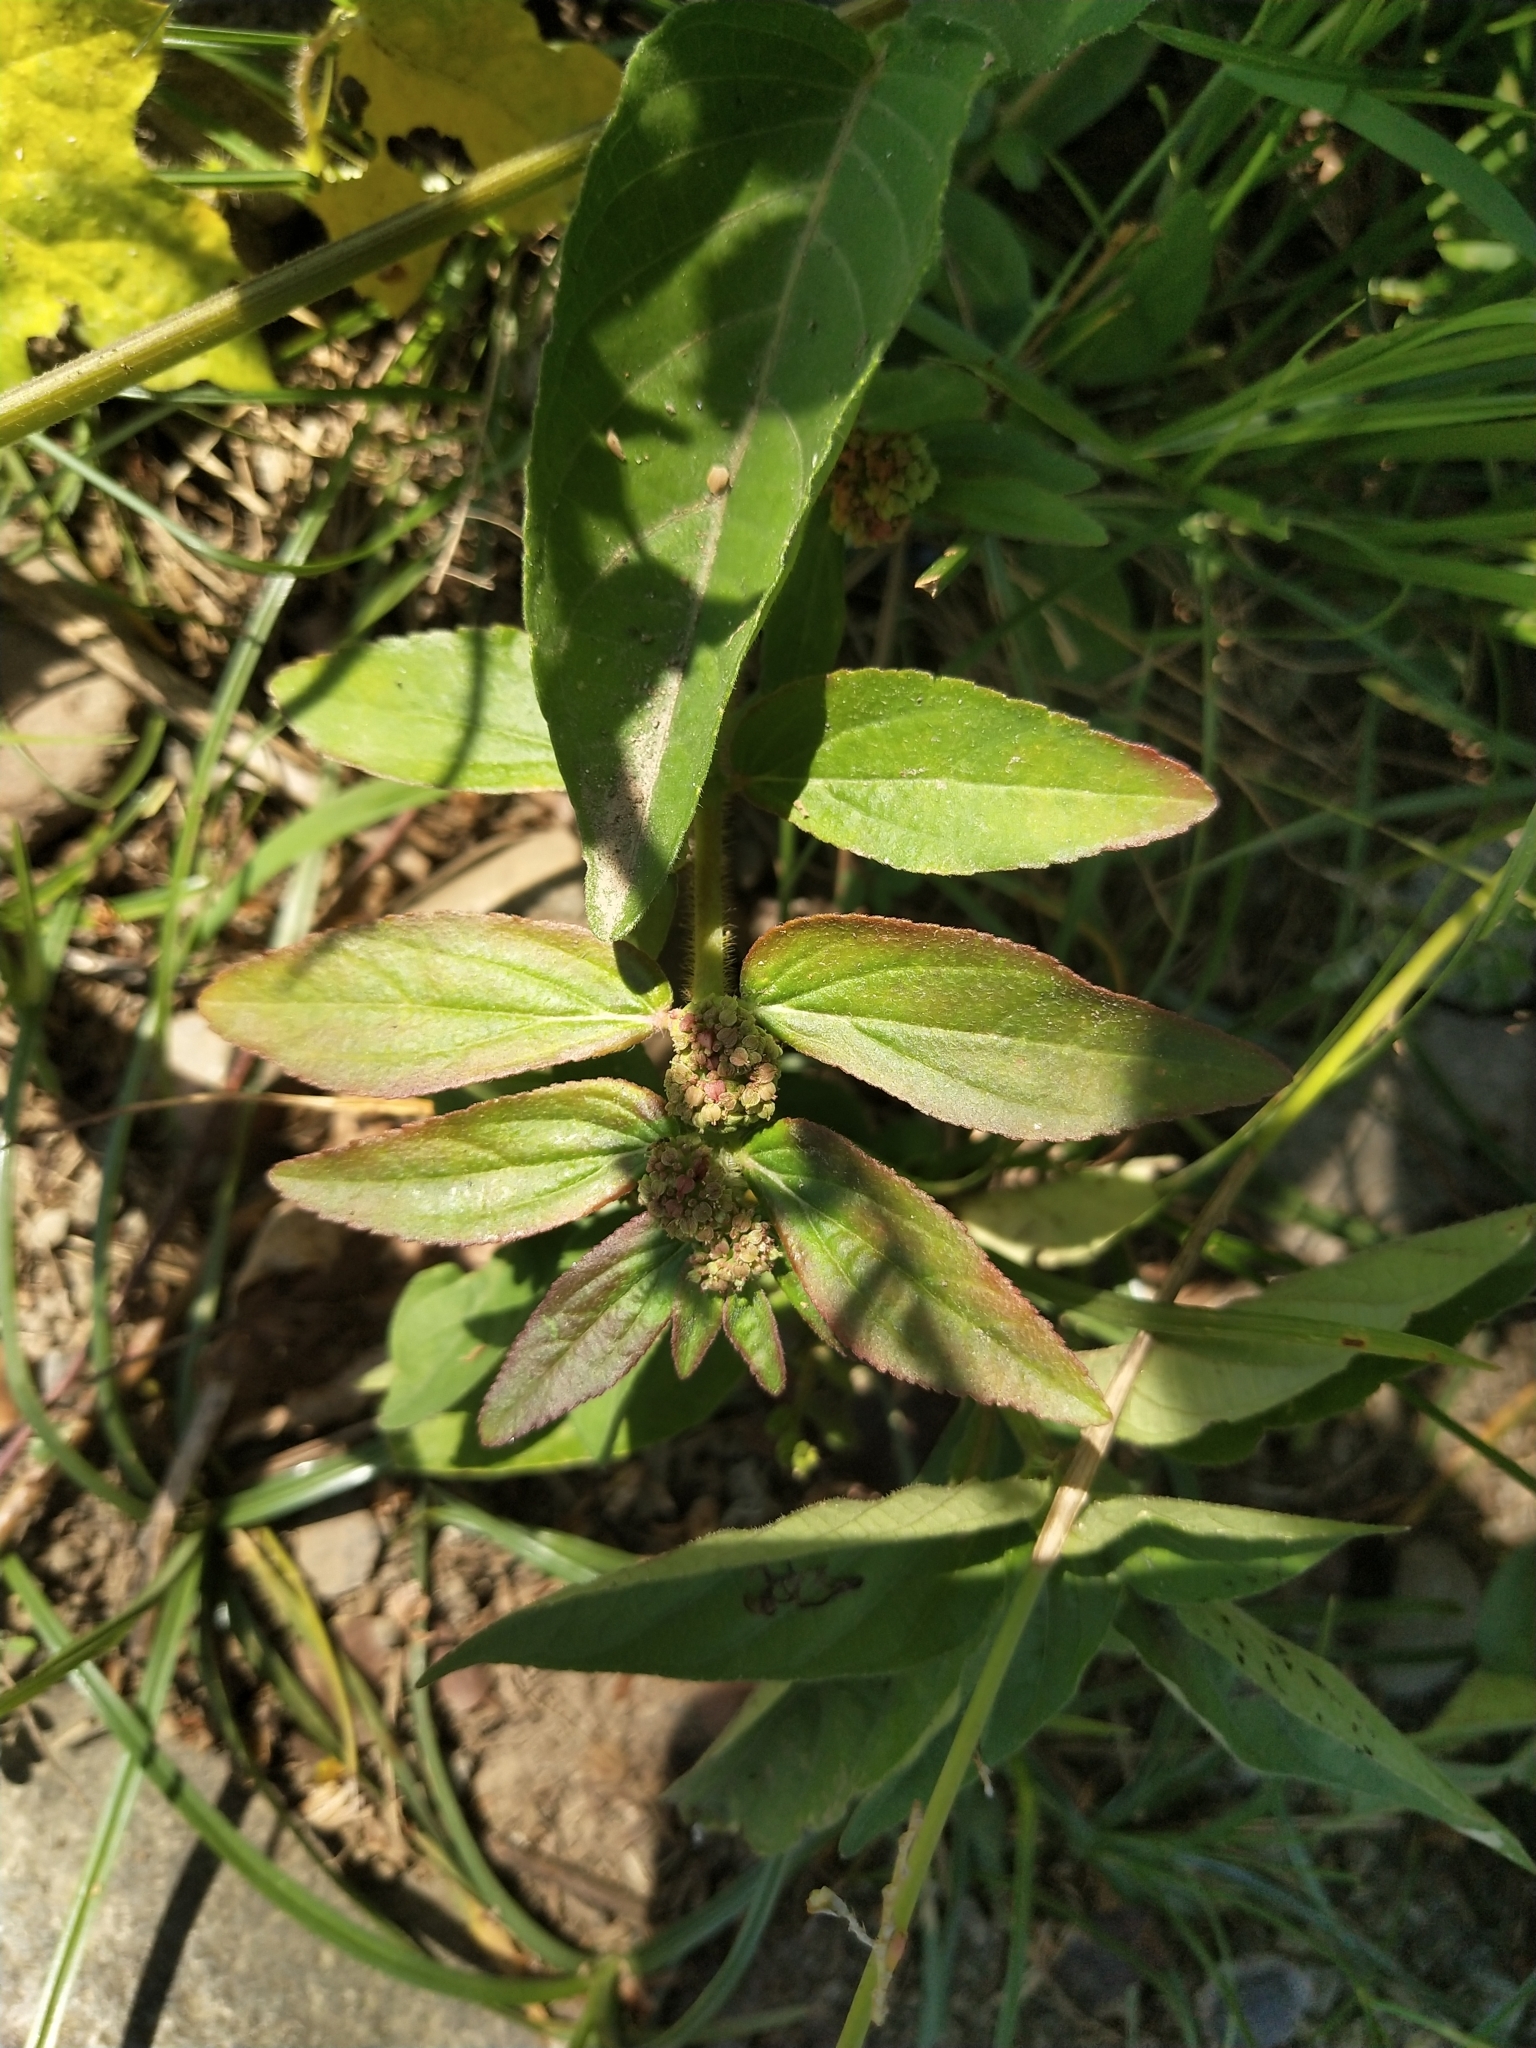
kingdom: Plantae
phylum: Tracheophyta
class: Magnoliopsida
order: Malpighiales
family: Euphorbiaceae
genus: Euphorbia
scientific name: Euphorbia hirta
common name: Pillpod sandmat
